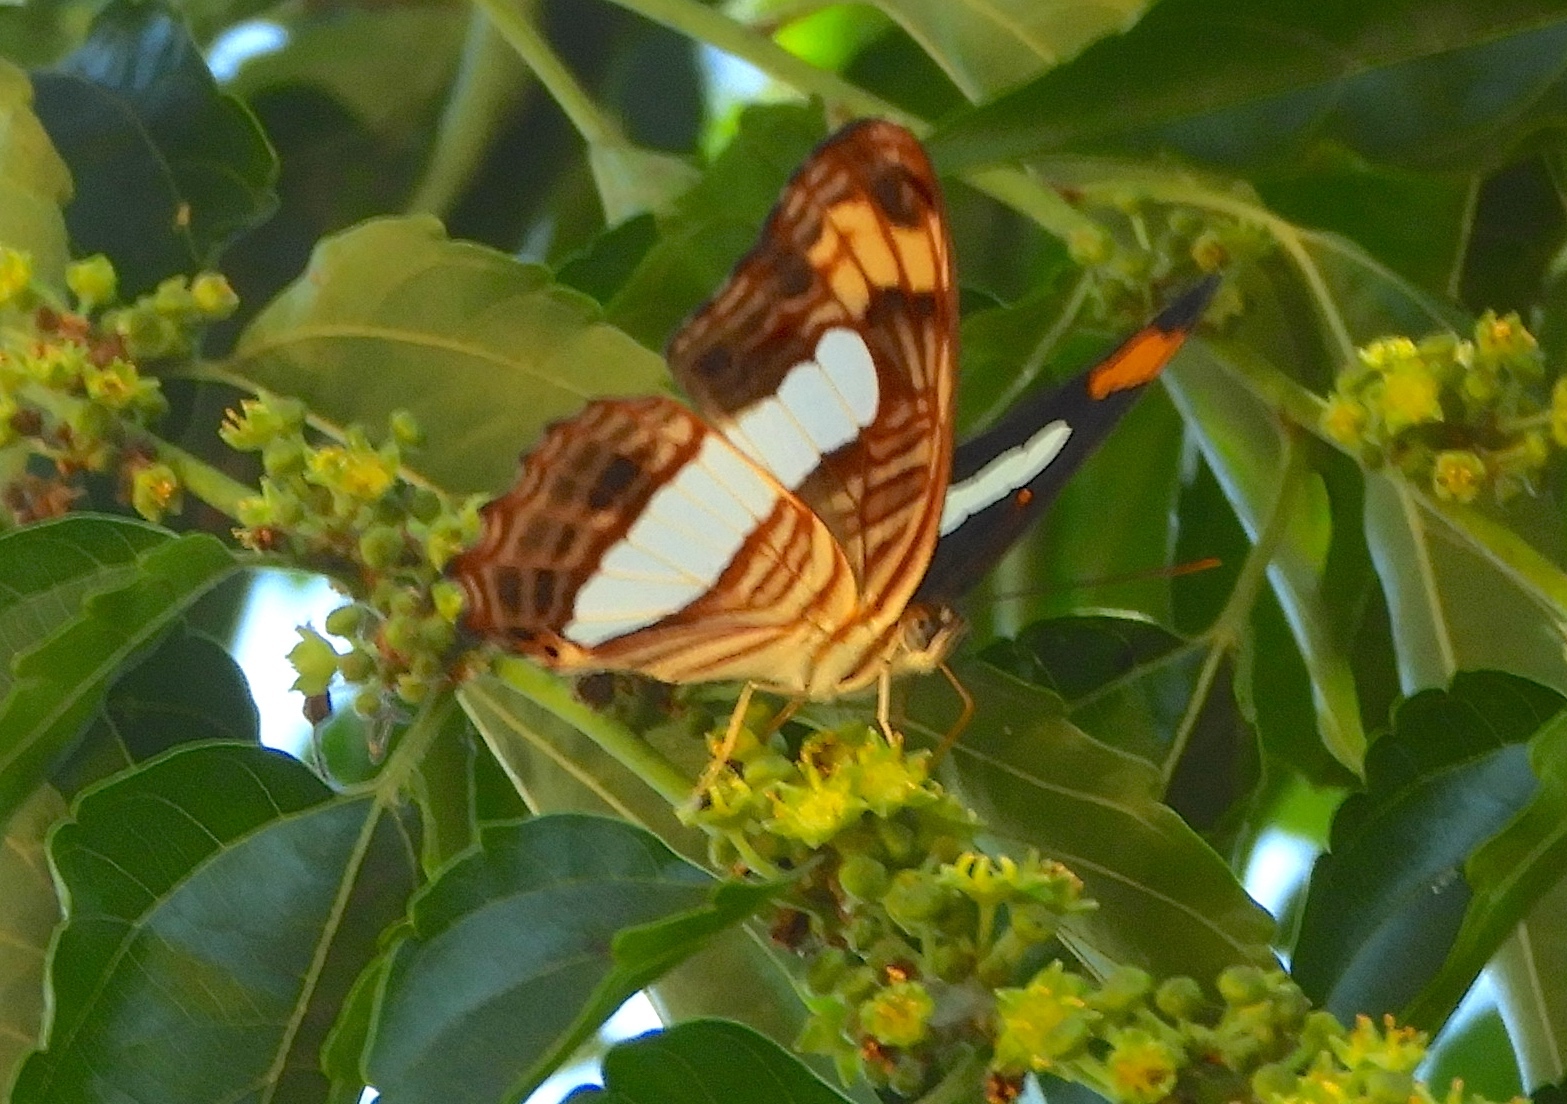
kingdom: Animalia
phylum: Arthropoda
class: Insecta
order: Lepidoptera
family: Nymphalidae
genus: Limenitis
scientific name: Limenitis iphiclus
